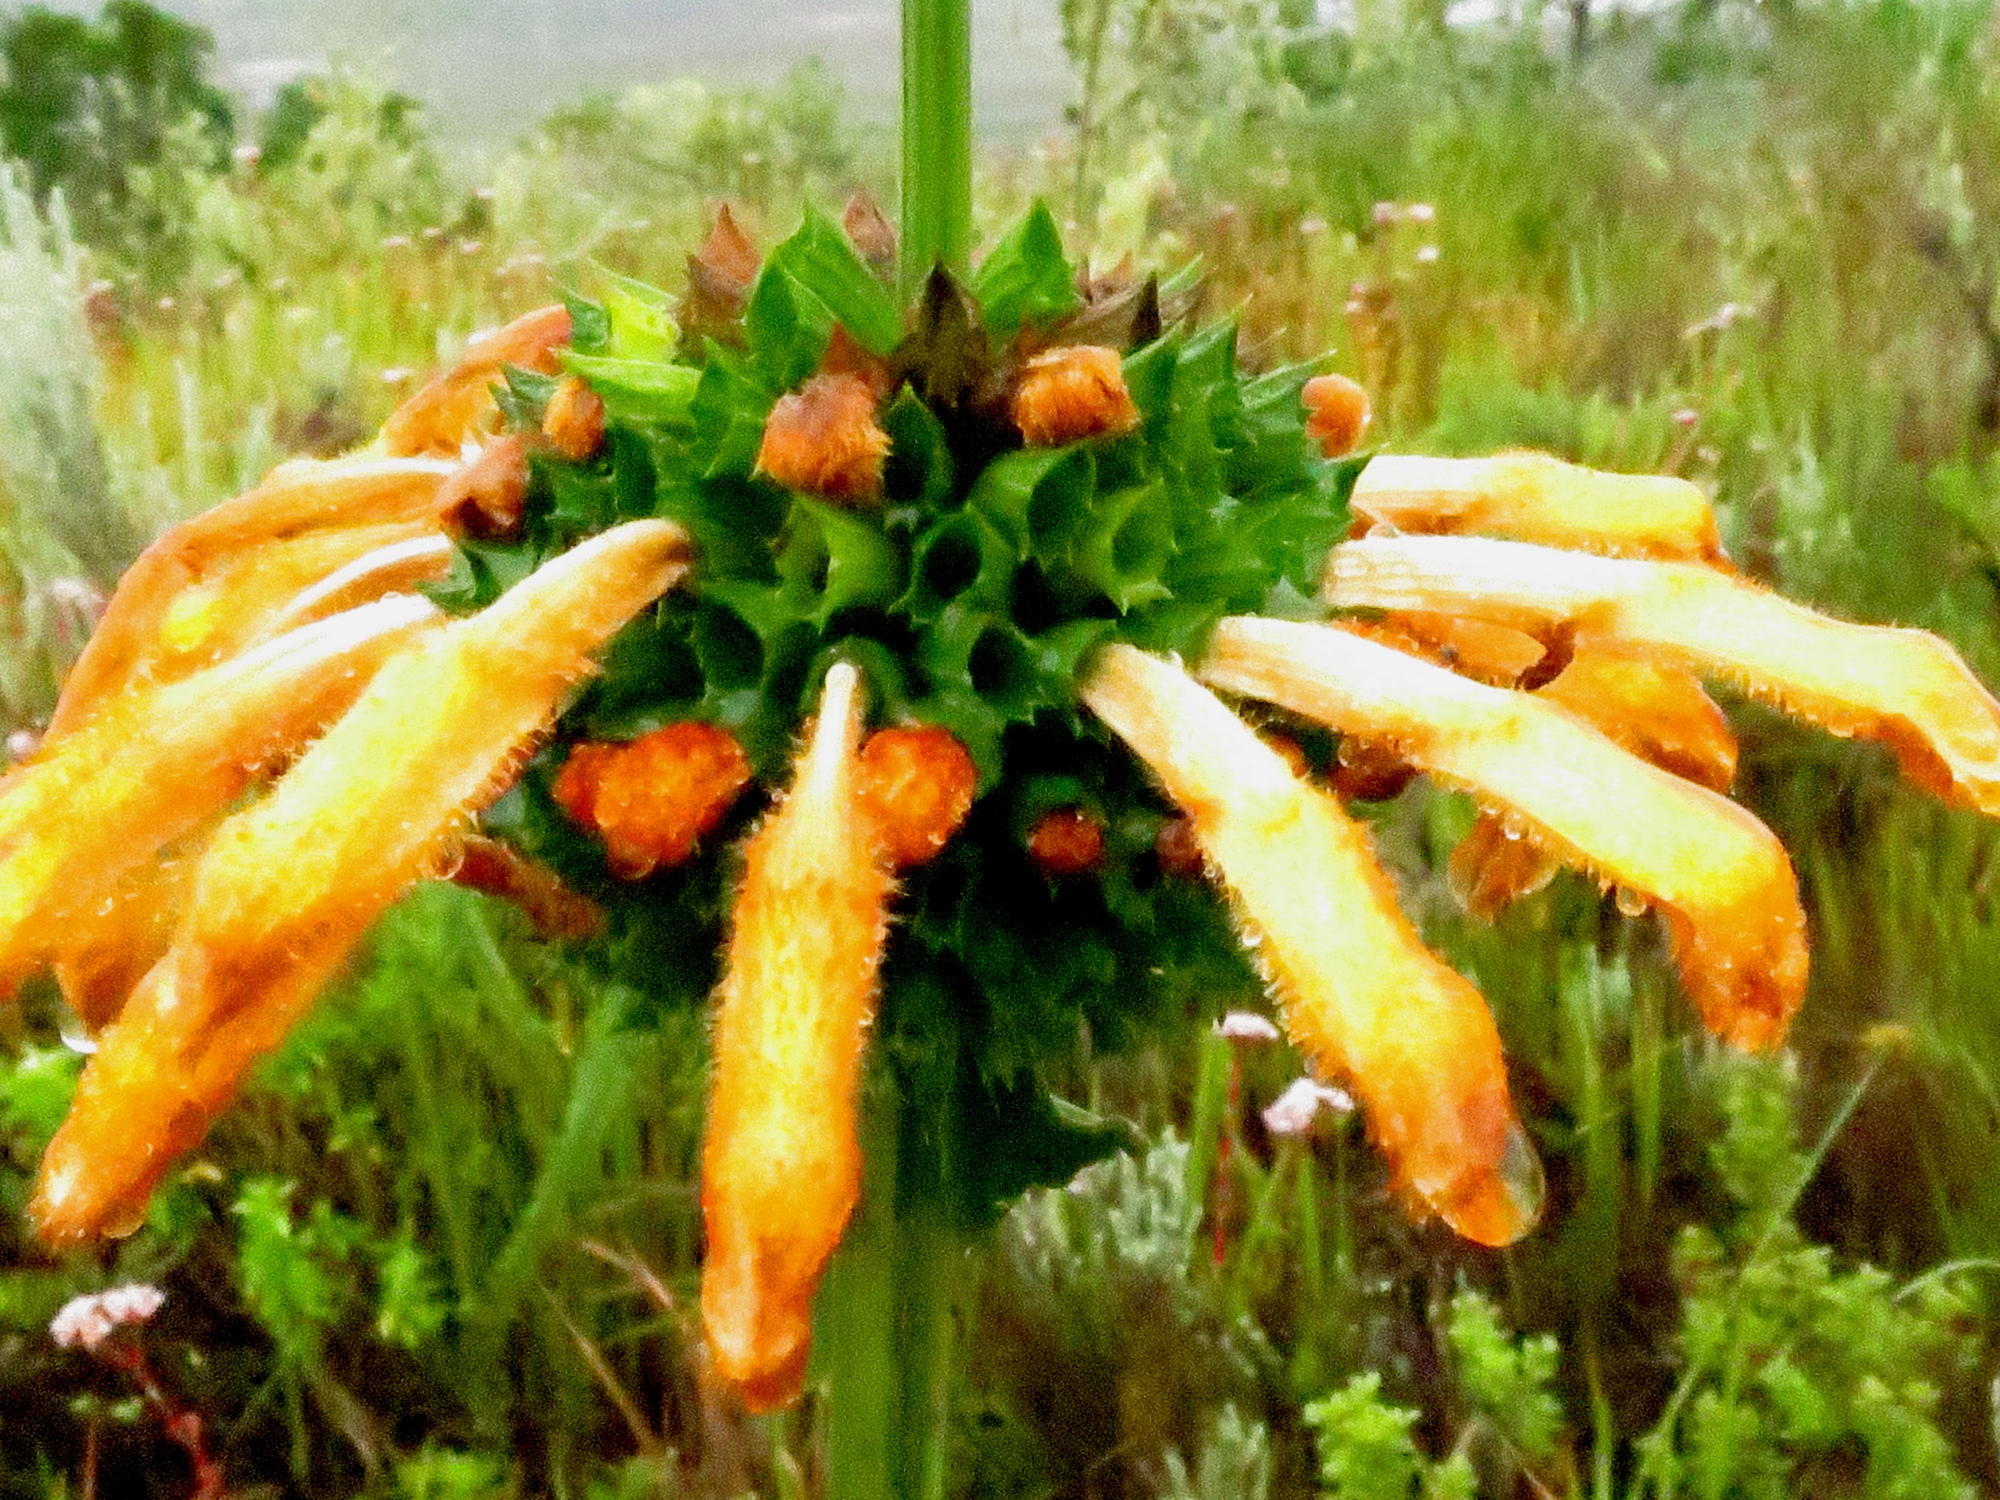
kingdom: Plantae
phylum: Tracheophyta
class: Magnoliopsida
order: Lamiales
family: Lamiaceae
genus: Leonotis
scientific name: Leonotis ocymifolia
